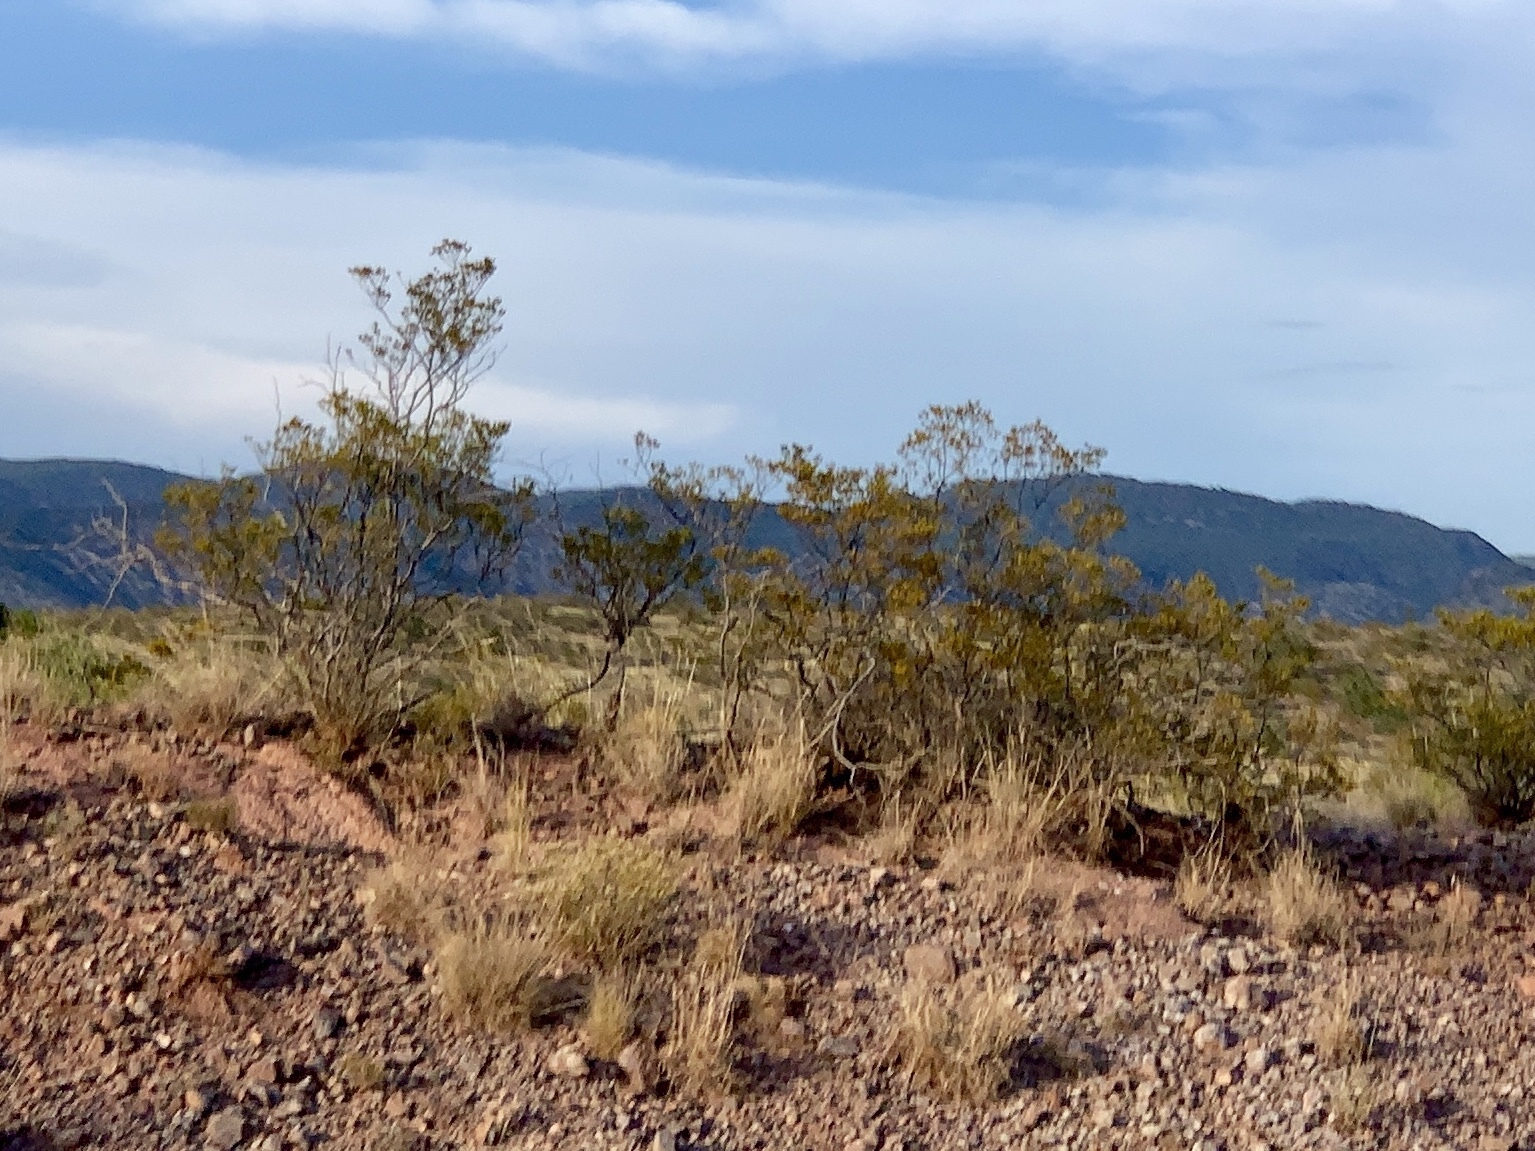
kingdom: Plantae
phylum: Tracheophyta
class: Magnoliopsida
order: Zygophyllales
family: Zygophyllaceae
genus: Larrea
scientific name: Larrea tridentata
